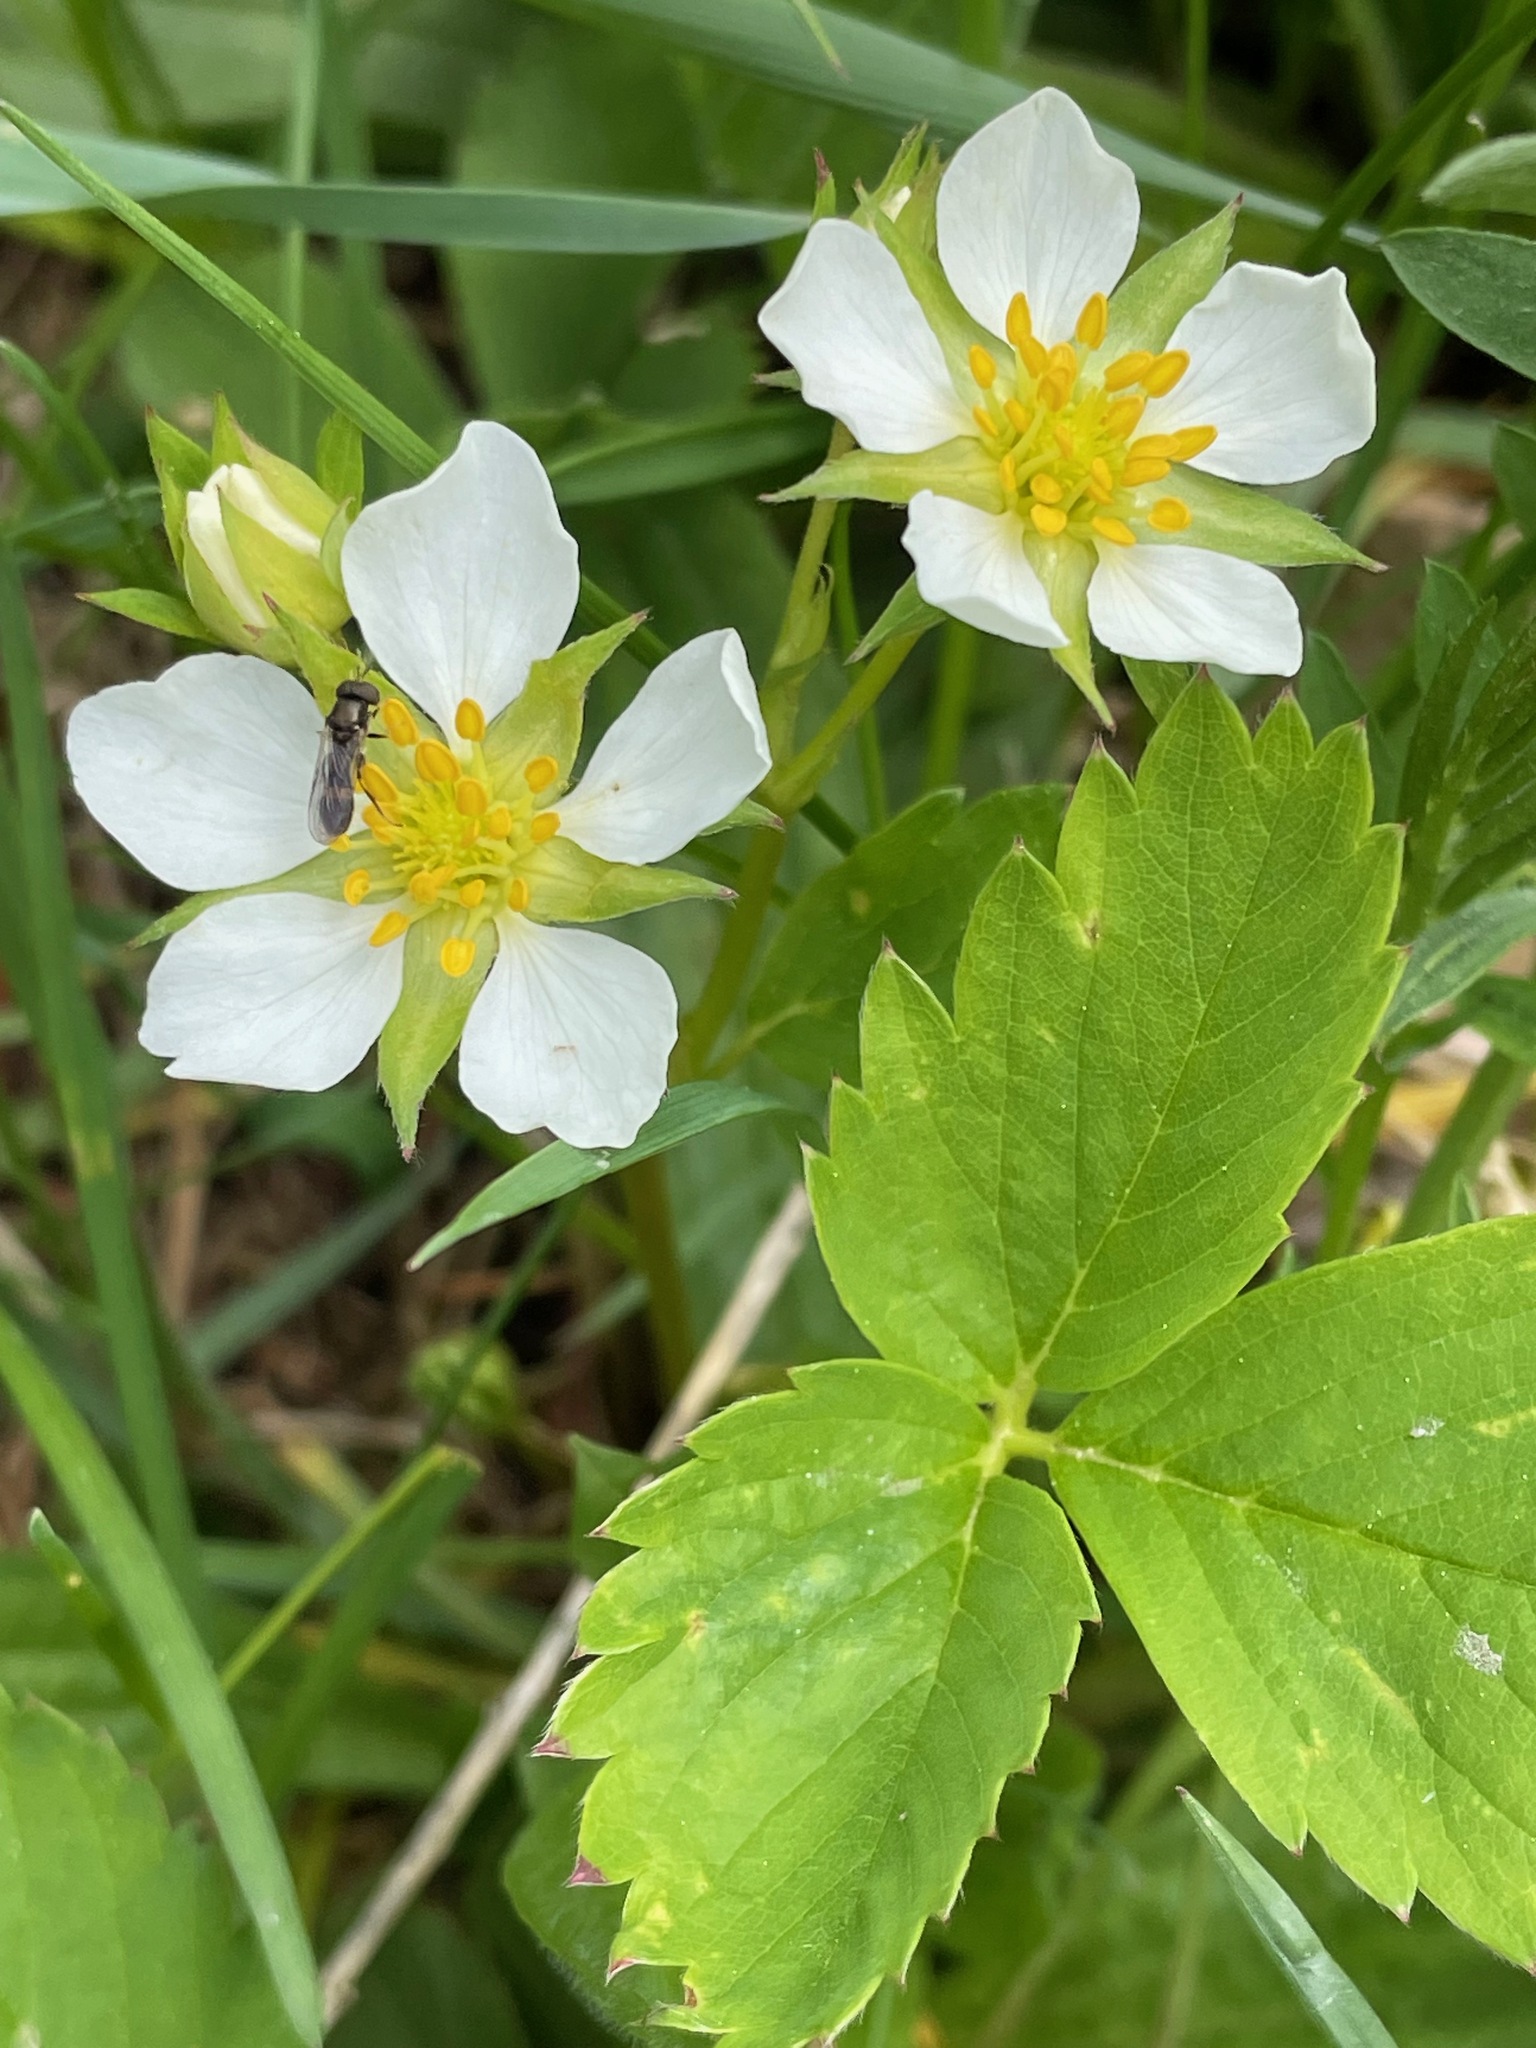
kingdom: Plantae
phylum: Tracheophyta
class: Magnoliopsida
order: Rosales
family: Rosaceae
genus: Fragaria
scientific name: Fragaria virginiana
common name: Thickleaved wild strawberry
